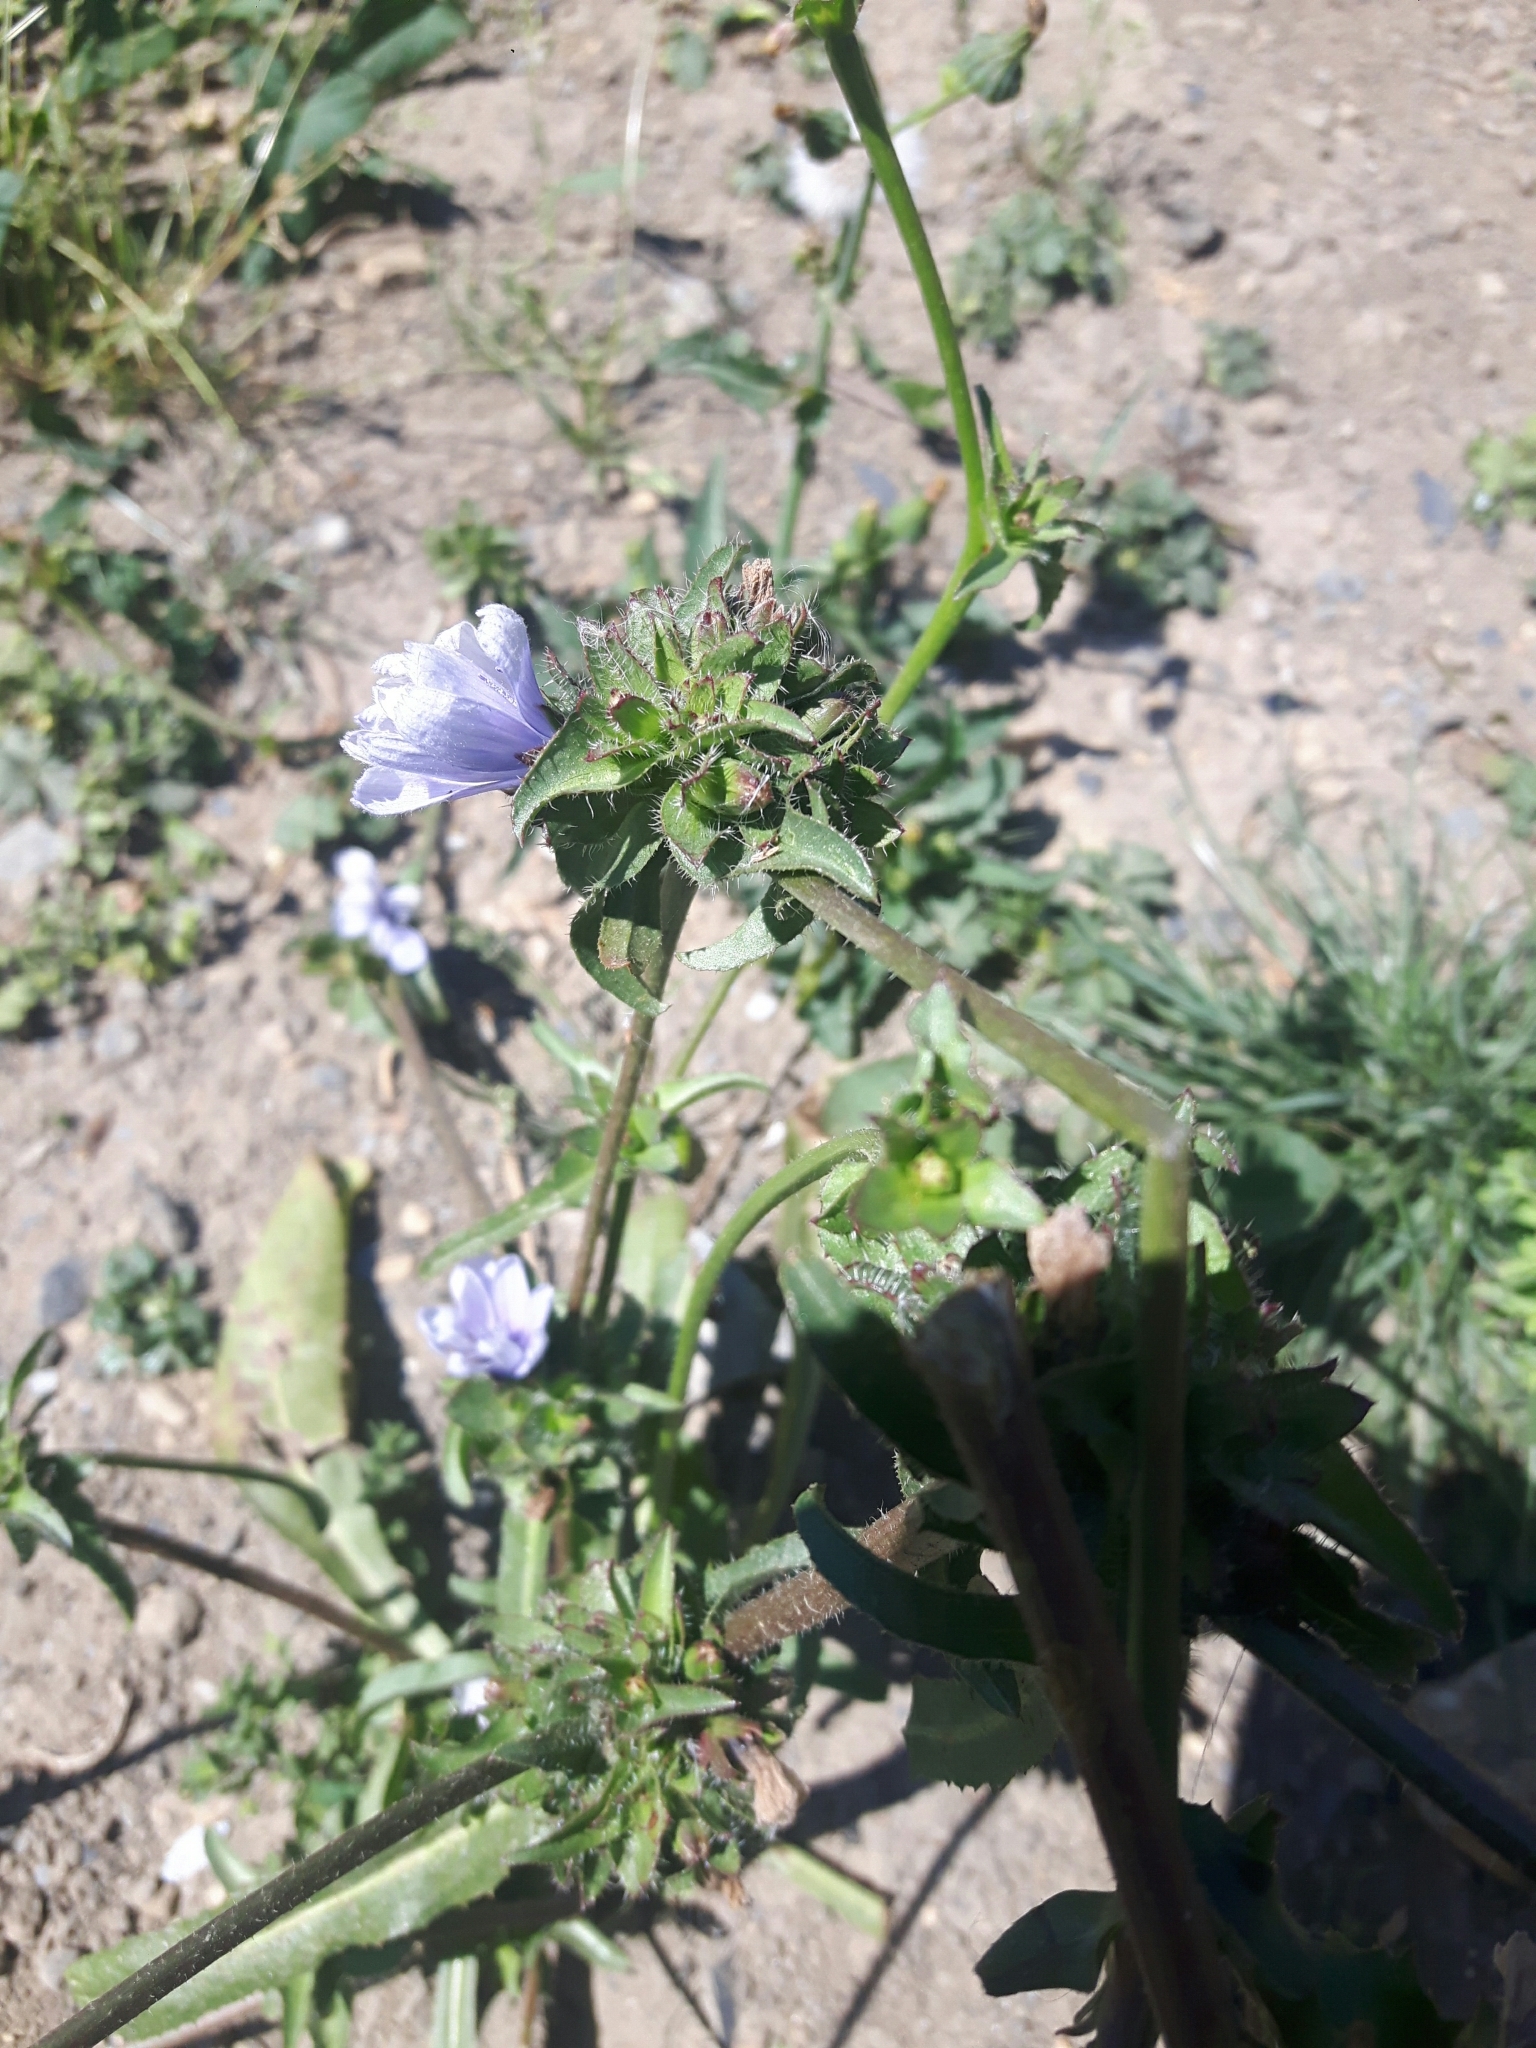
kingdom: Plantae
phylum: Tracheophyta
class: Magnoliopsida
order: Asterales
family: Asteraceae
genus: Cichorium
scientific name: Cichorium intybus
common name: Chicory
